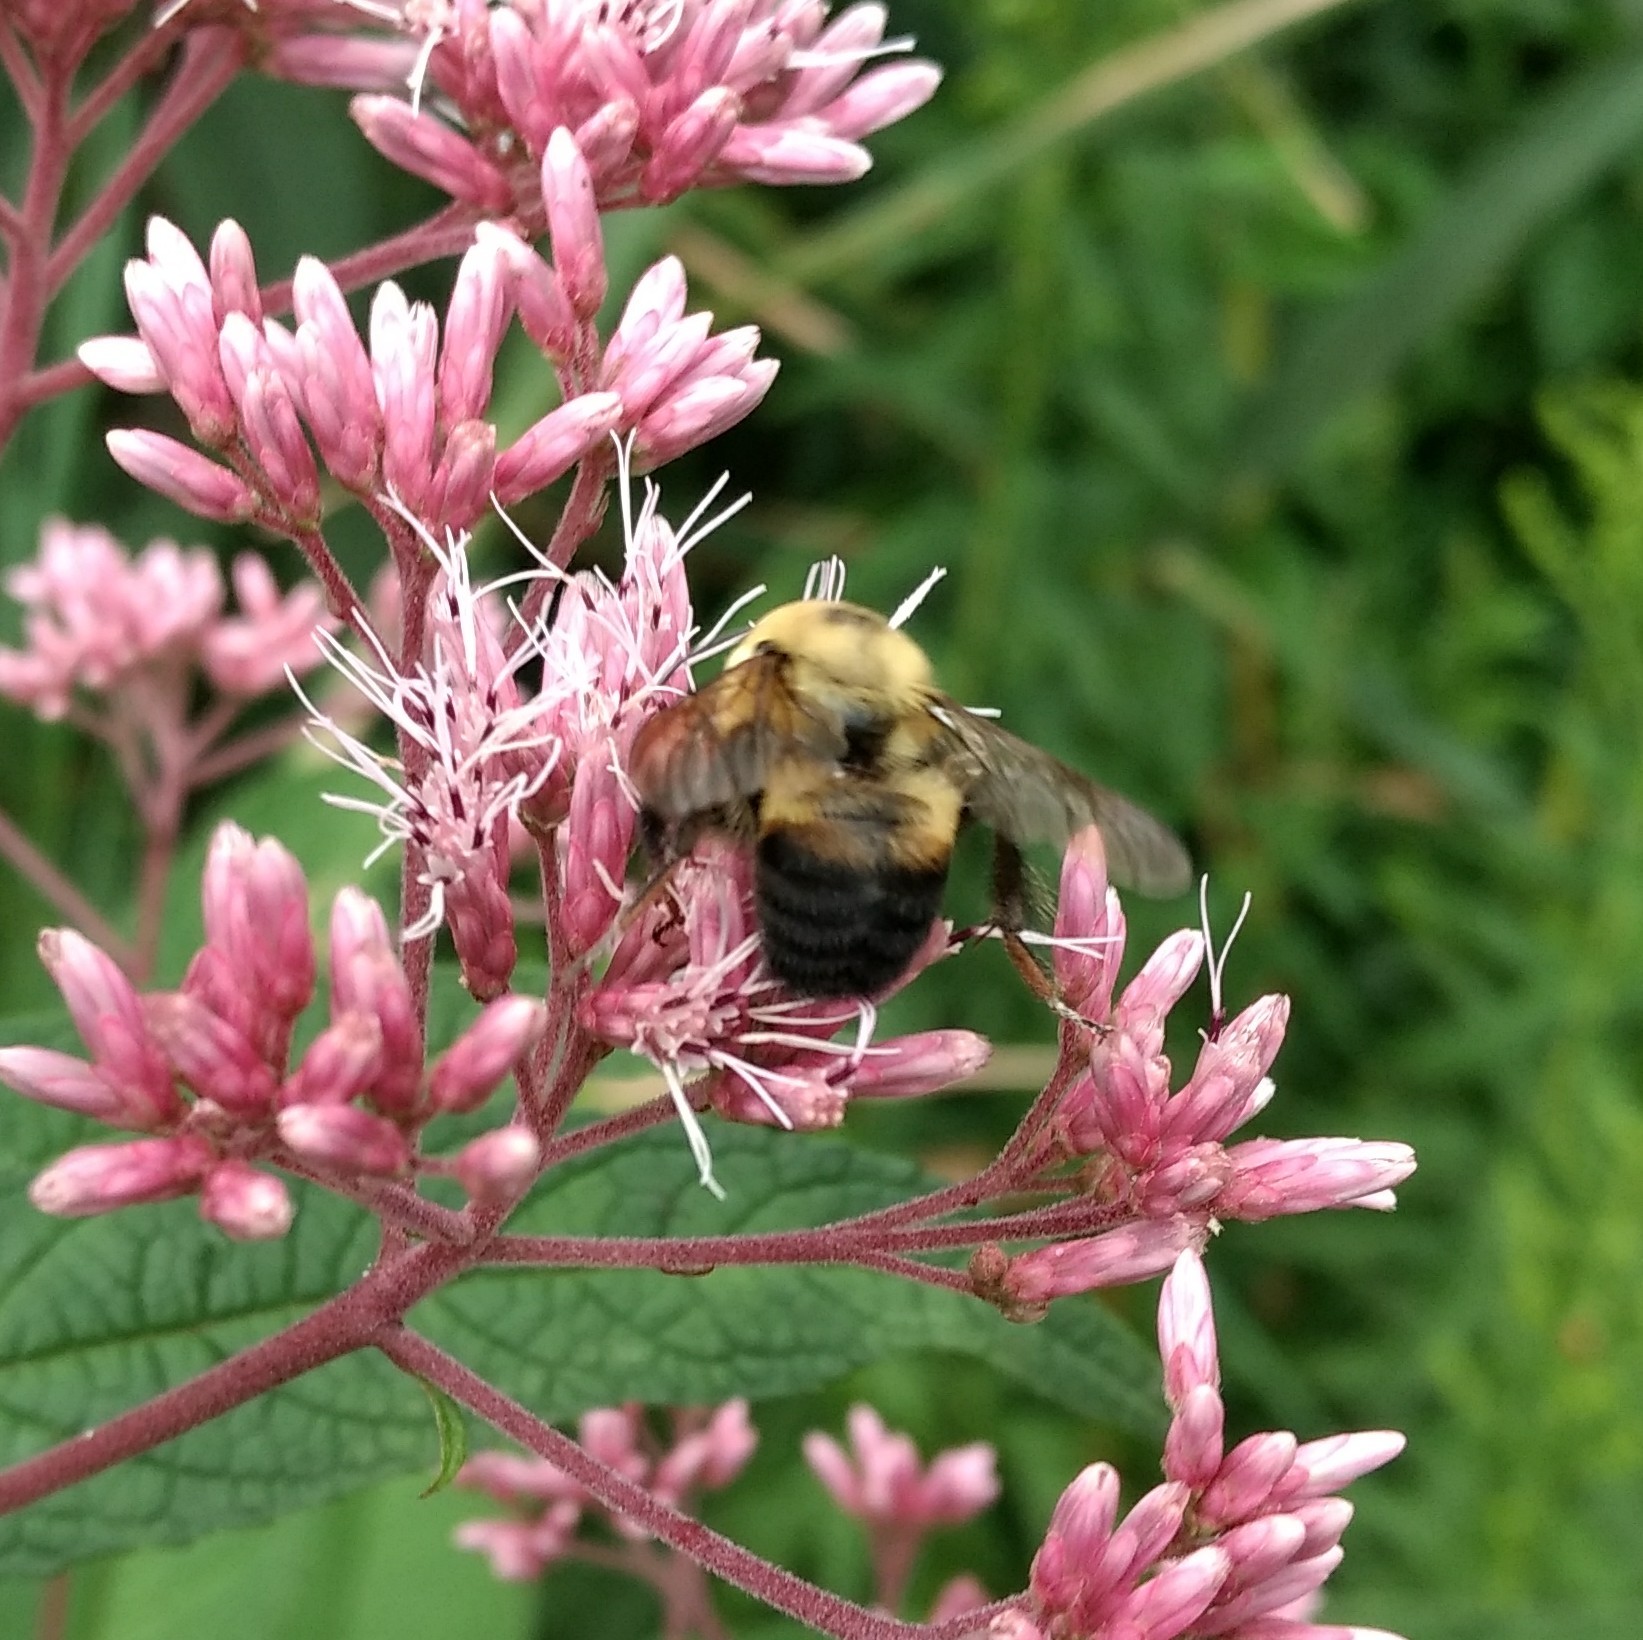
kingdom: Animalia
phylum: Arthropoda
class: Insecta
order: Hymenoptera
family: Apidae
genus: Bombus
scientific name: Bombus griseocollis
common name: Brown-belted bumble bee
